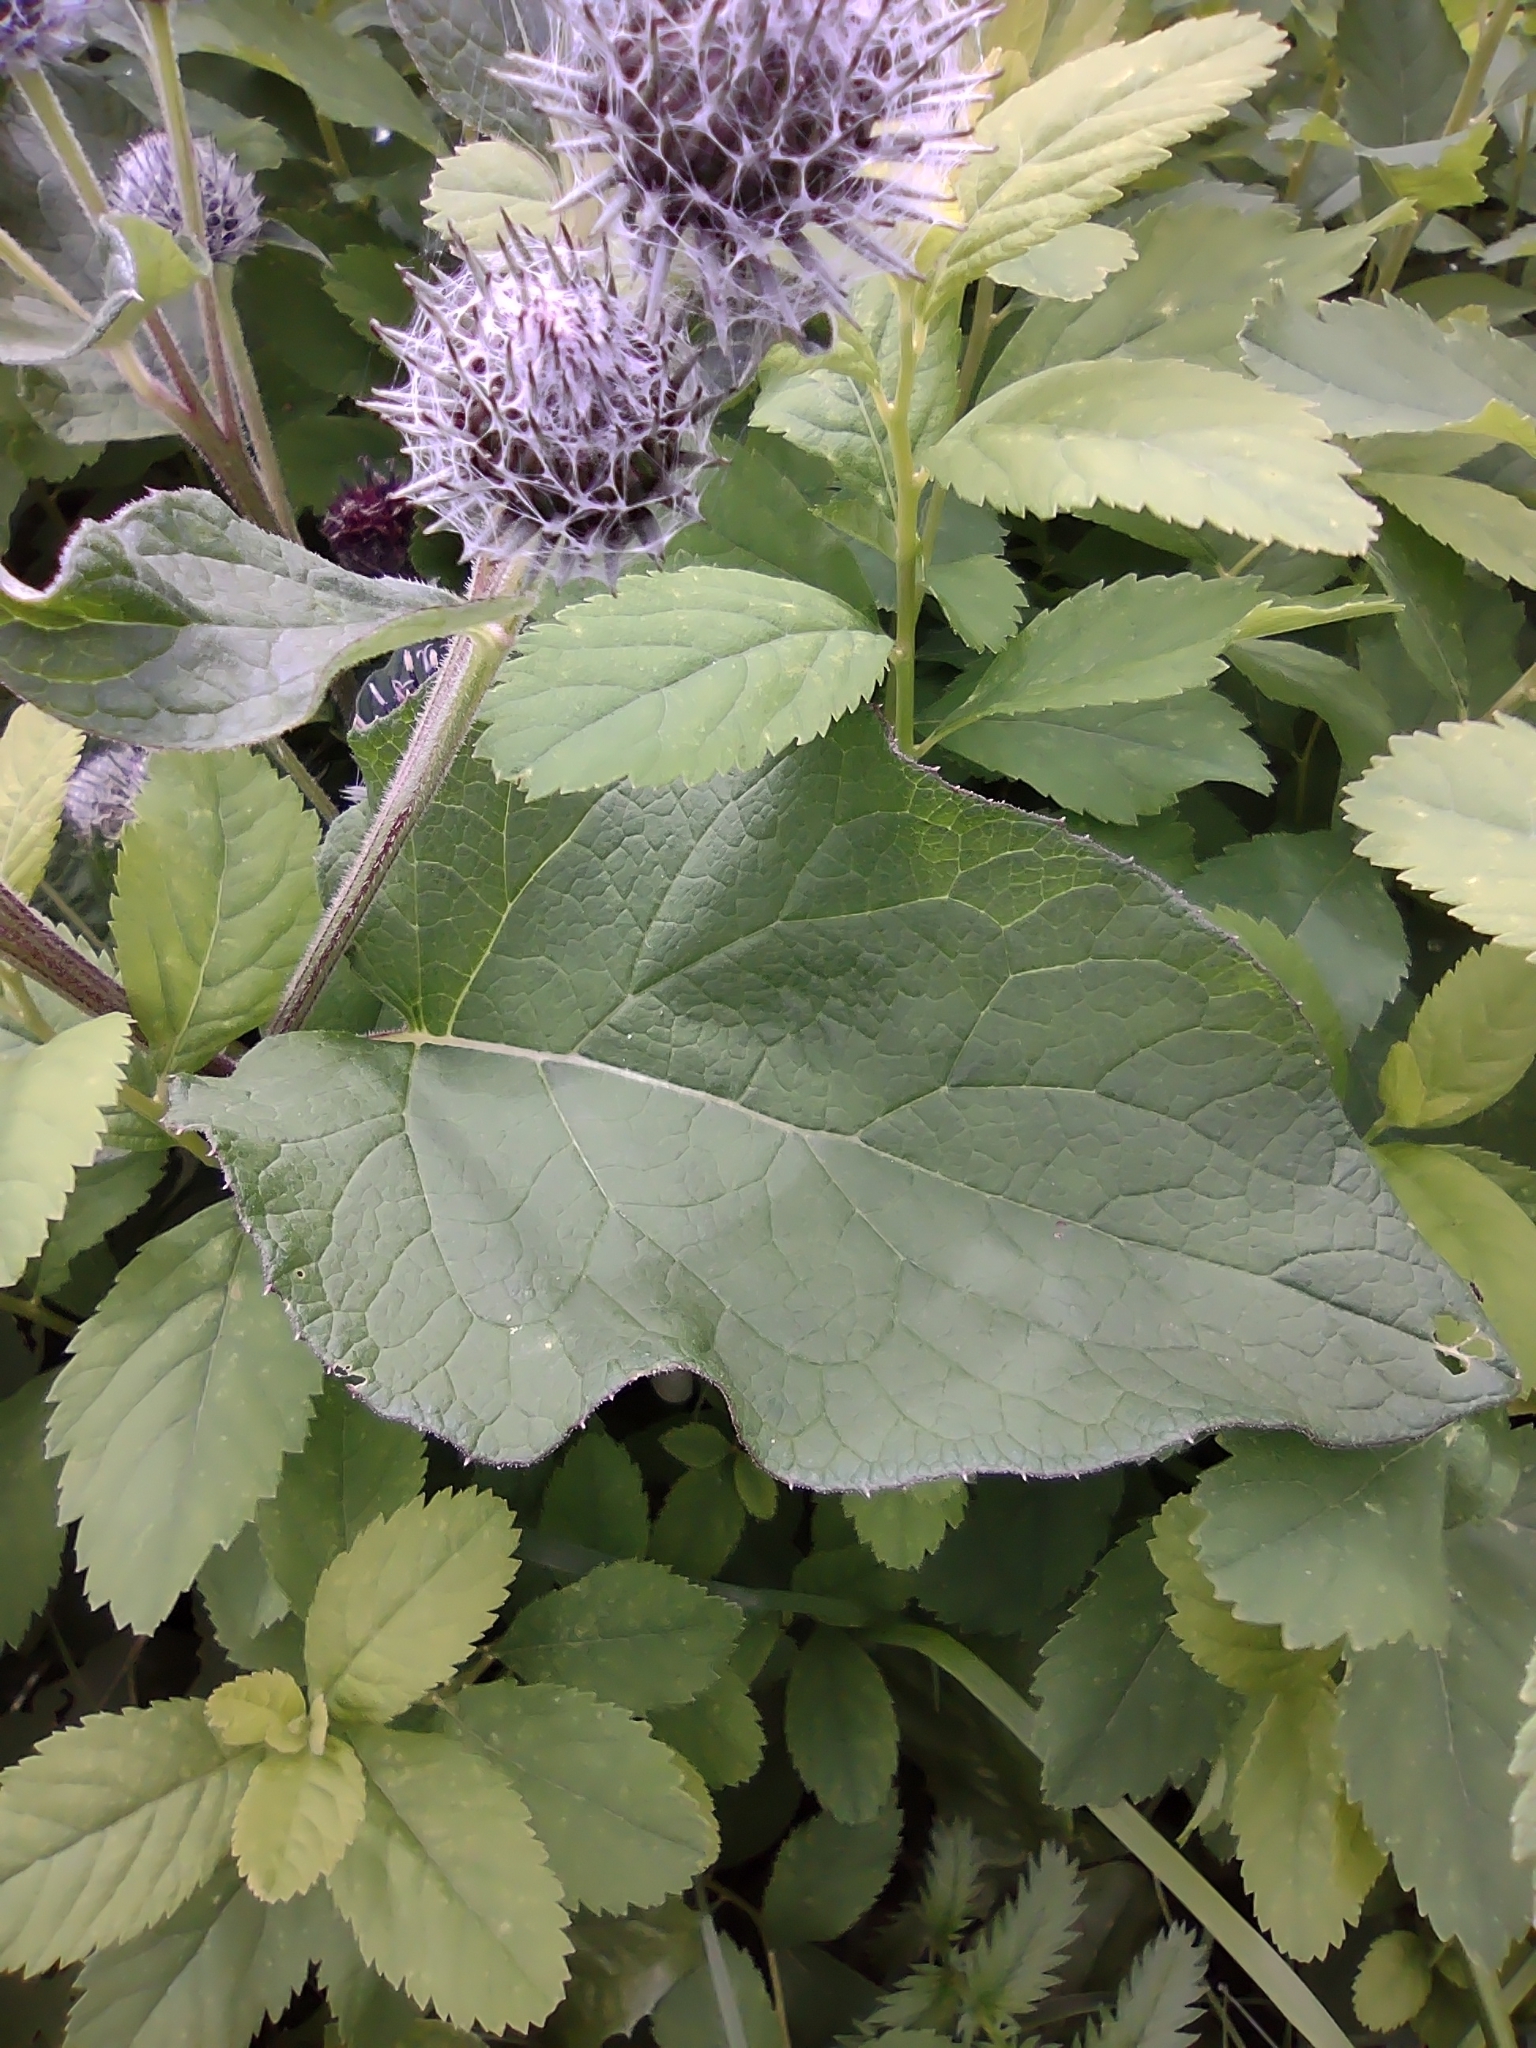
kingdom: Plantae
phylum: Tracheophyta
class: Magnoliopsida
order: Asterales
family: Asteraceae
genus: Arctium
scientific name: Arctium tomentosum
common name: Woolly burdock
